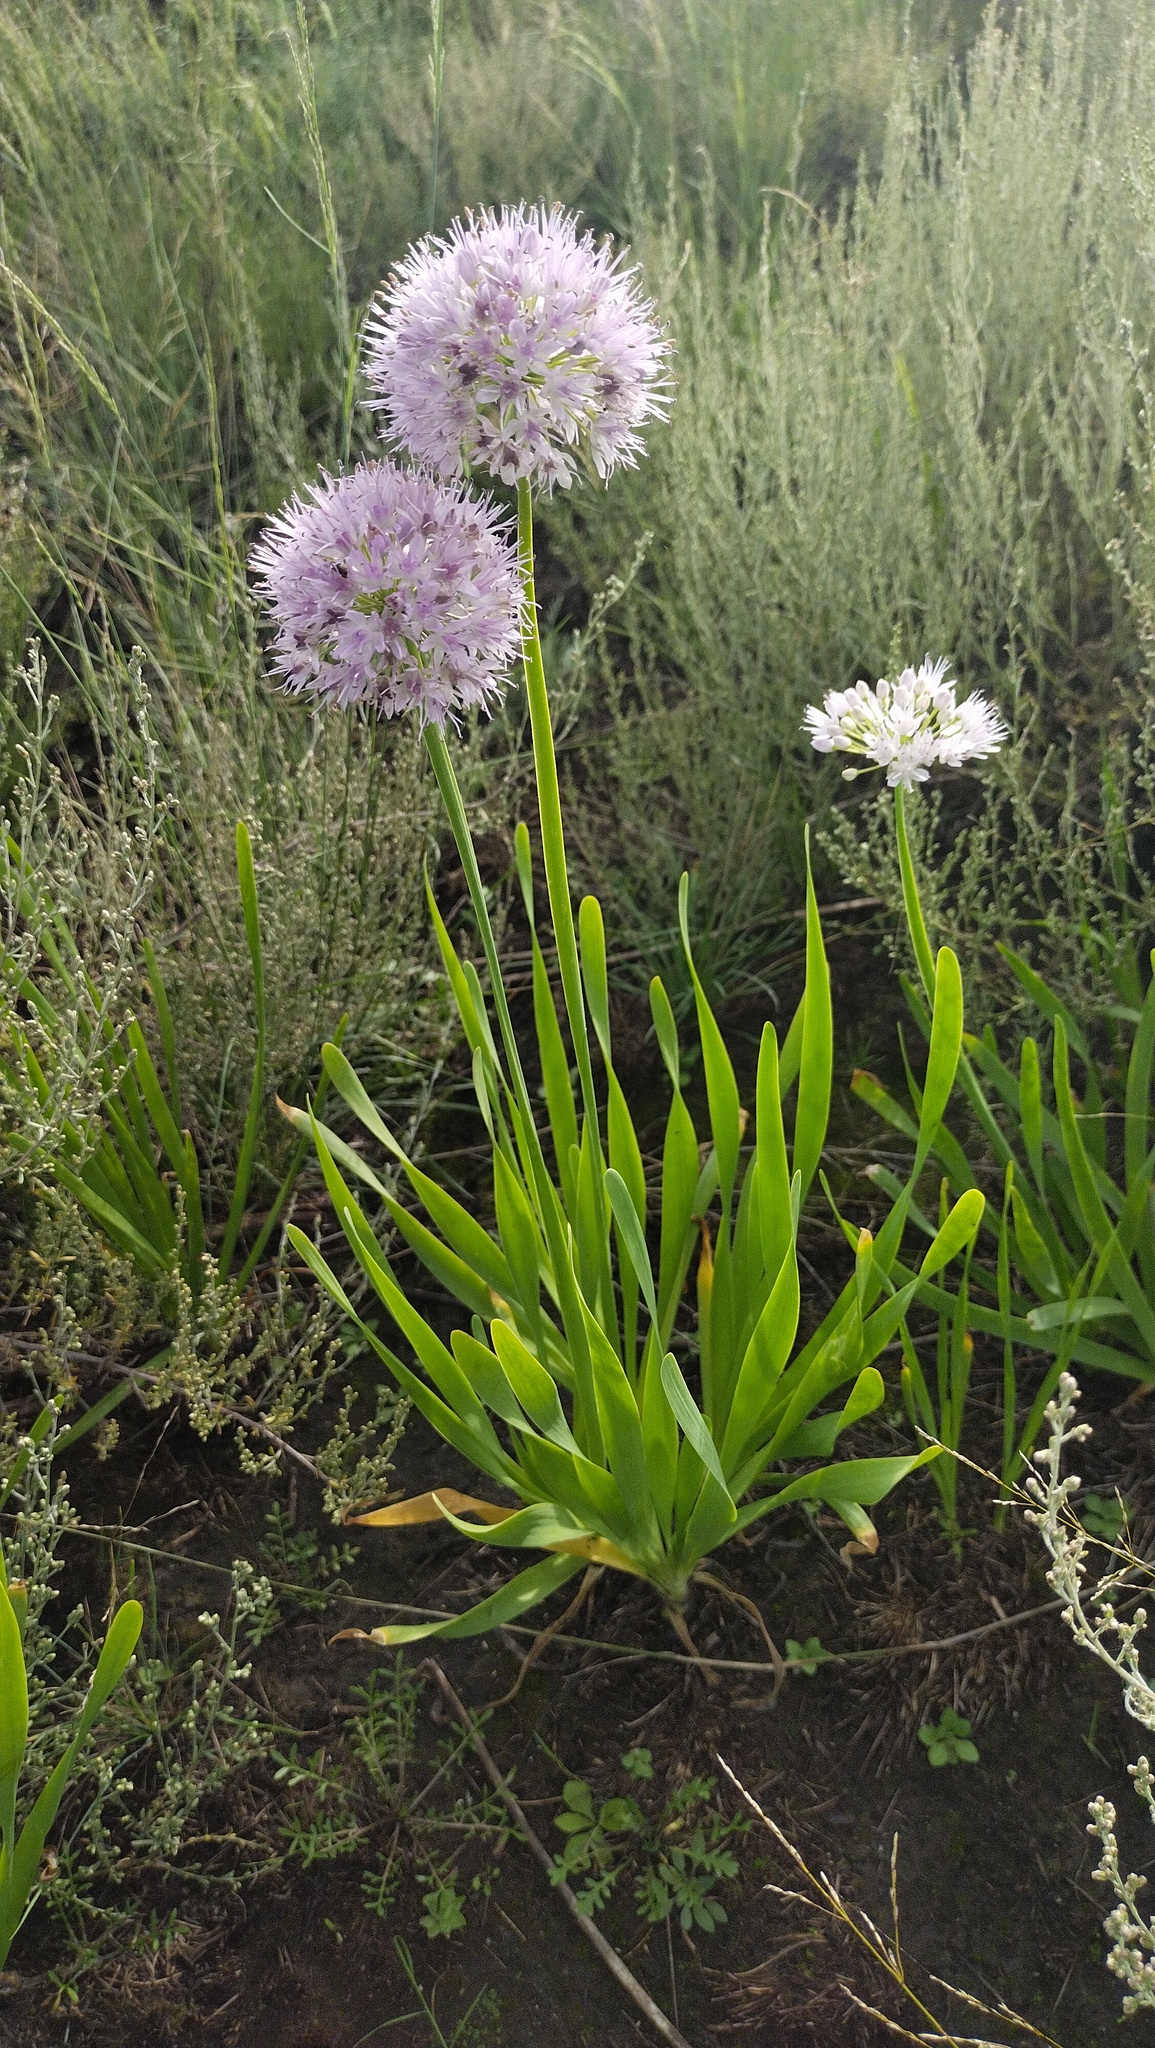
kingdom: Plantae
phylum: Tracheophyta
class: Liliopsida
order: Asparagales
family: Amaryllidaceae
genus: Allium
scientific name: Allium nutans
